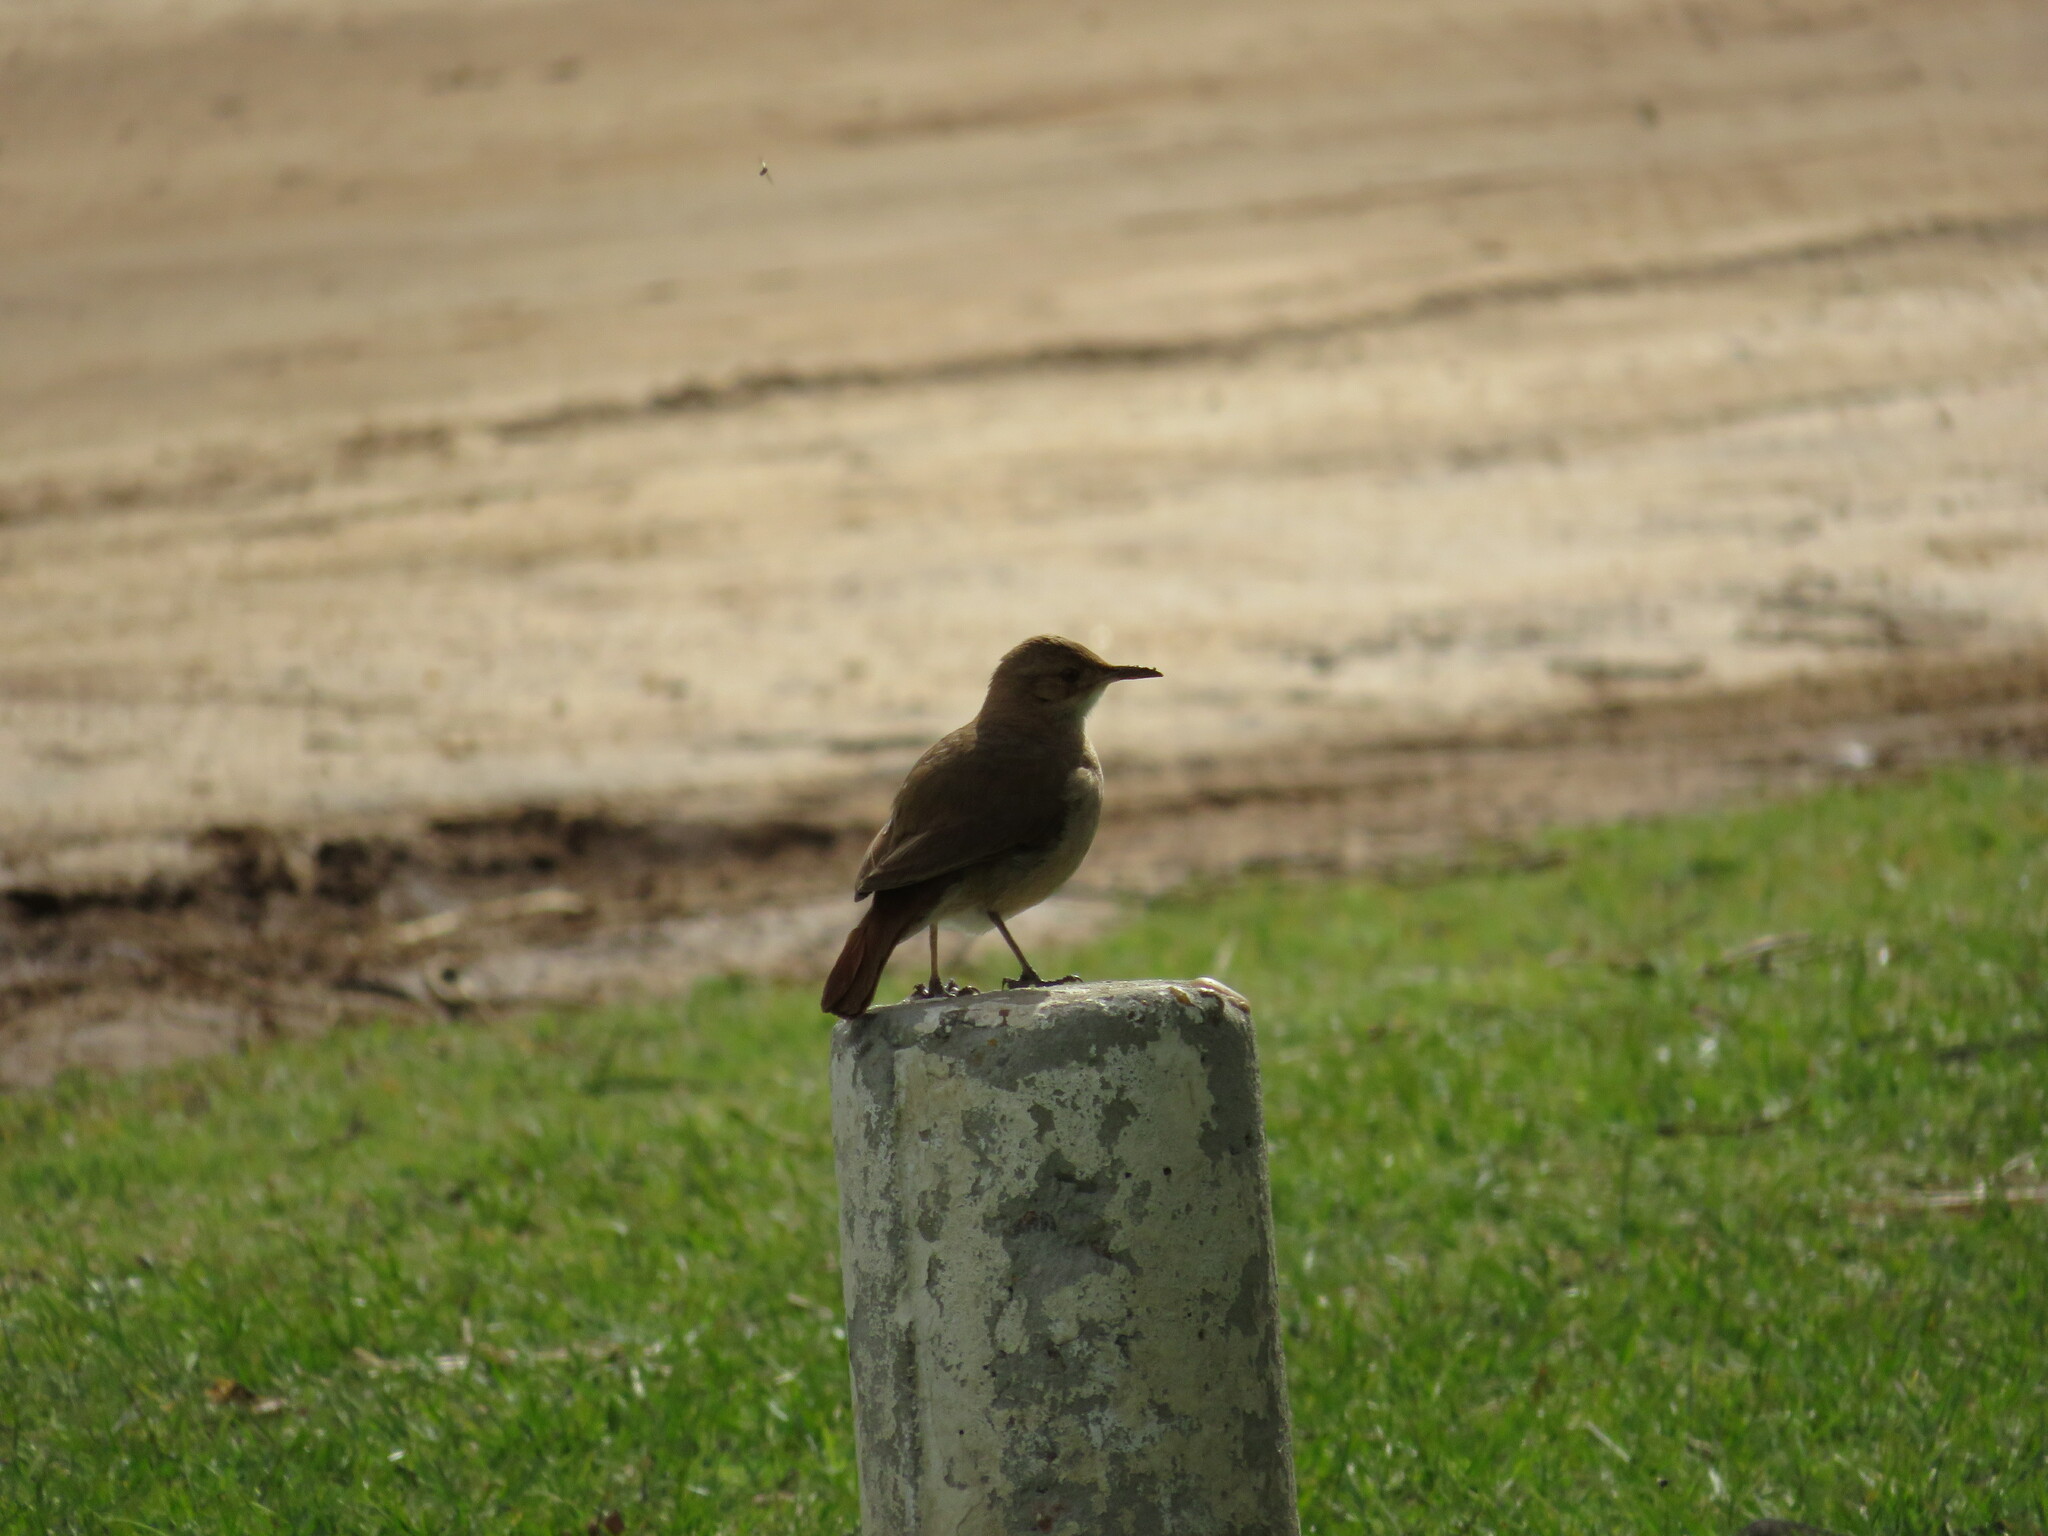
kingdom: Animalia
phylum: Chordata
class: Aves
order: Passeriformes
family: Furnariidae
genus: Furnarius
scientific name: Furnarius rufus
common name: Rufous hornero
